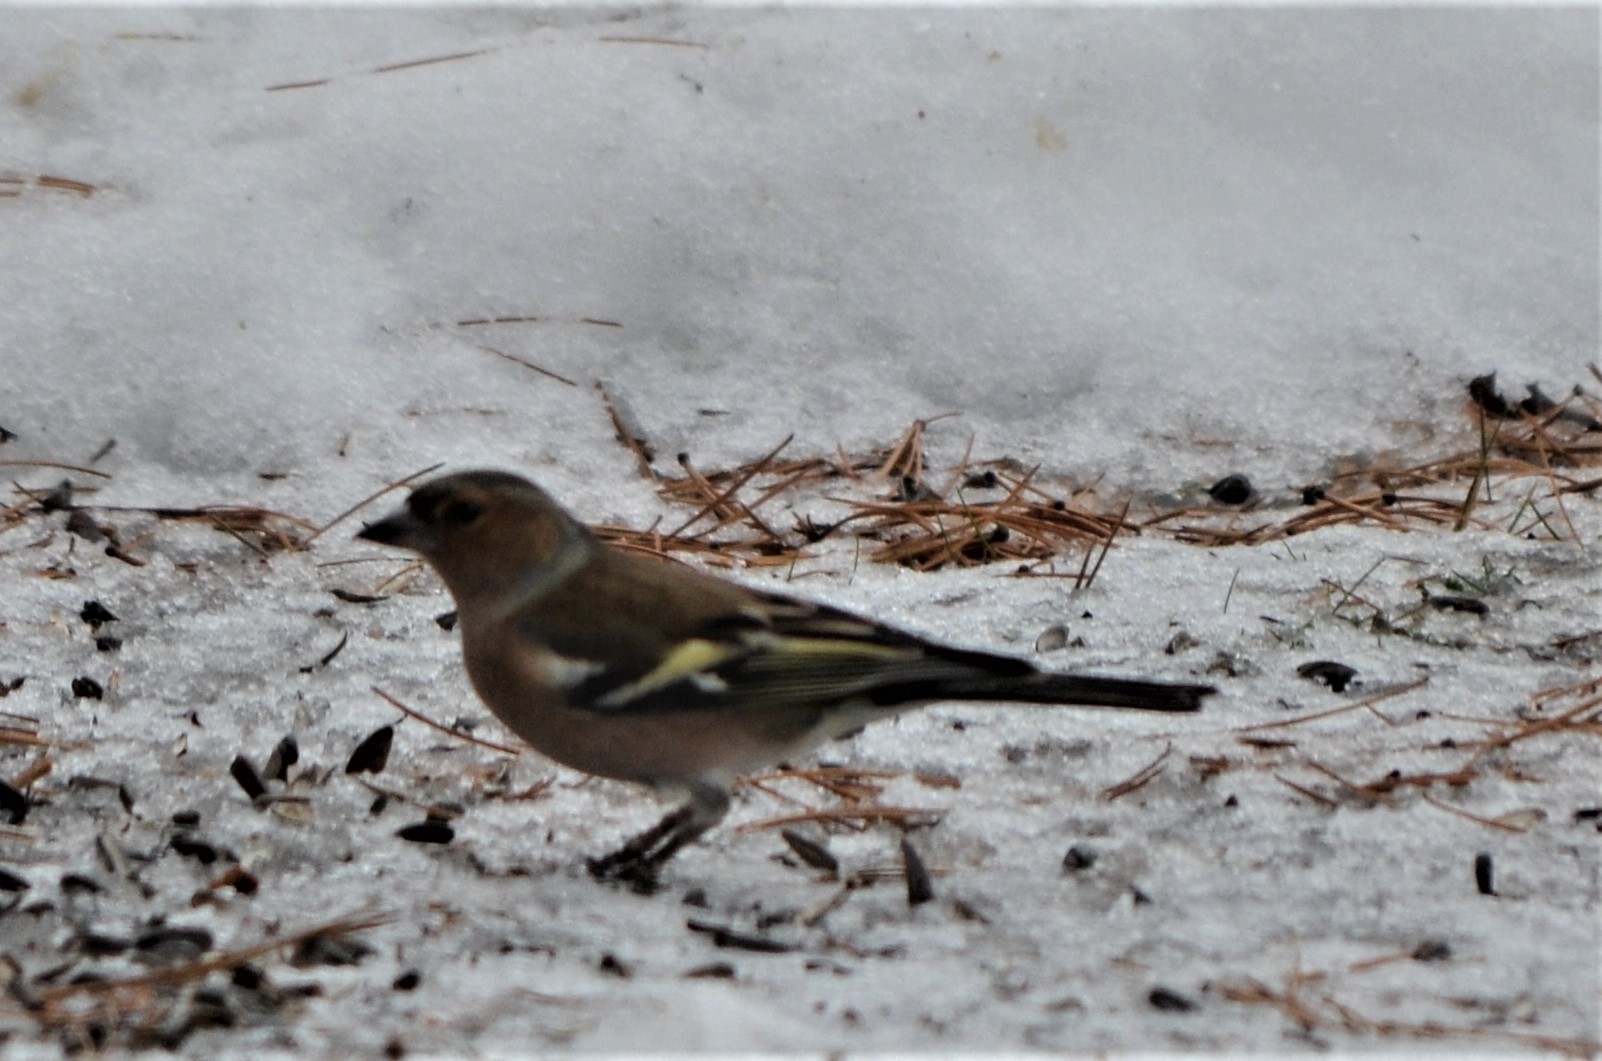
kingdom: Animalia
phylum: Chordata
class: Aves
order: Passeriformes
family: Fringillidae
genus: Fringilla
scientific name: Fringilla coelebs
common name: Common chaffinch
